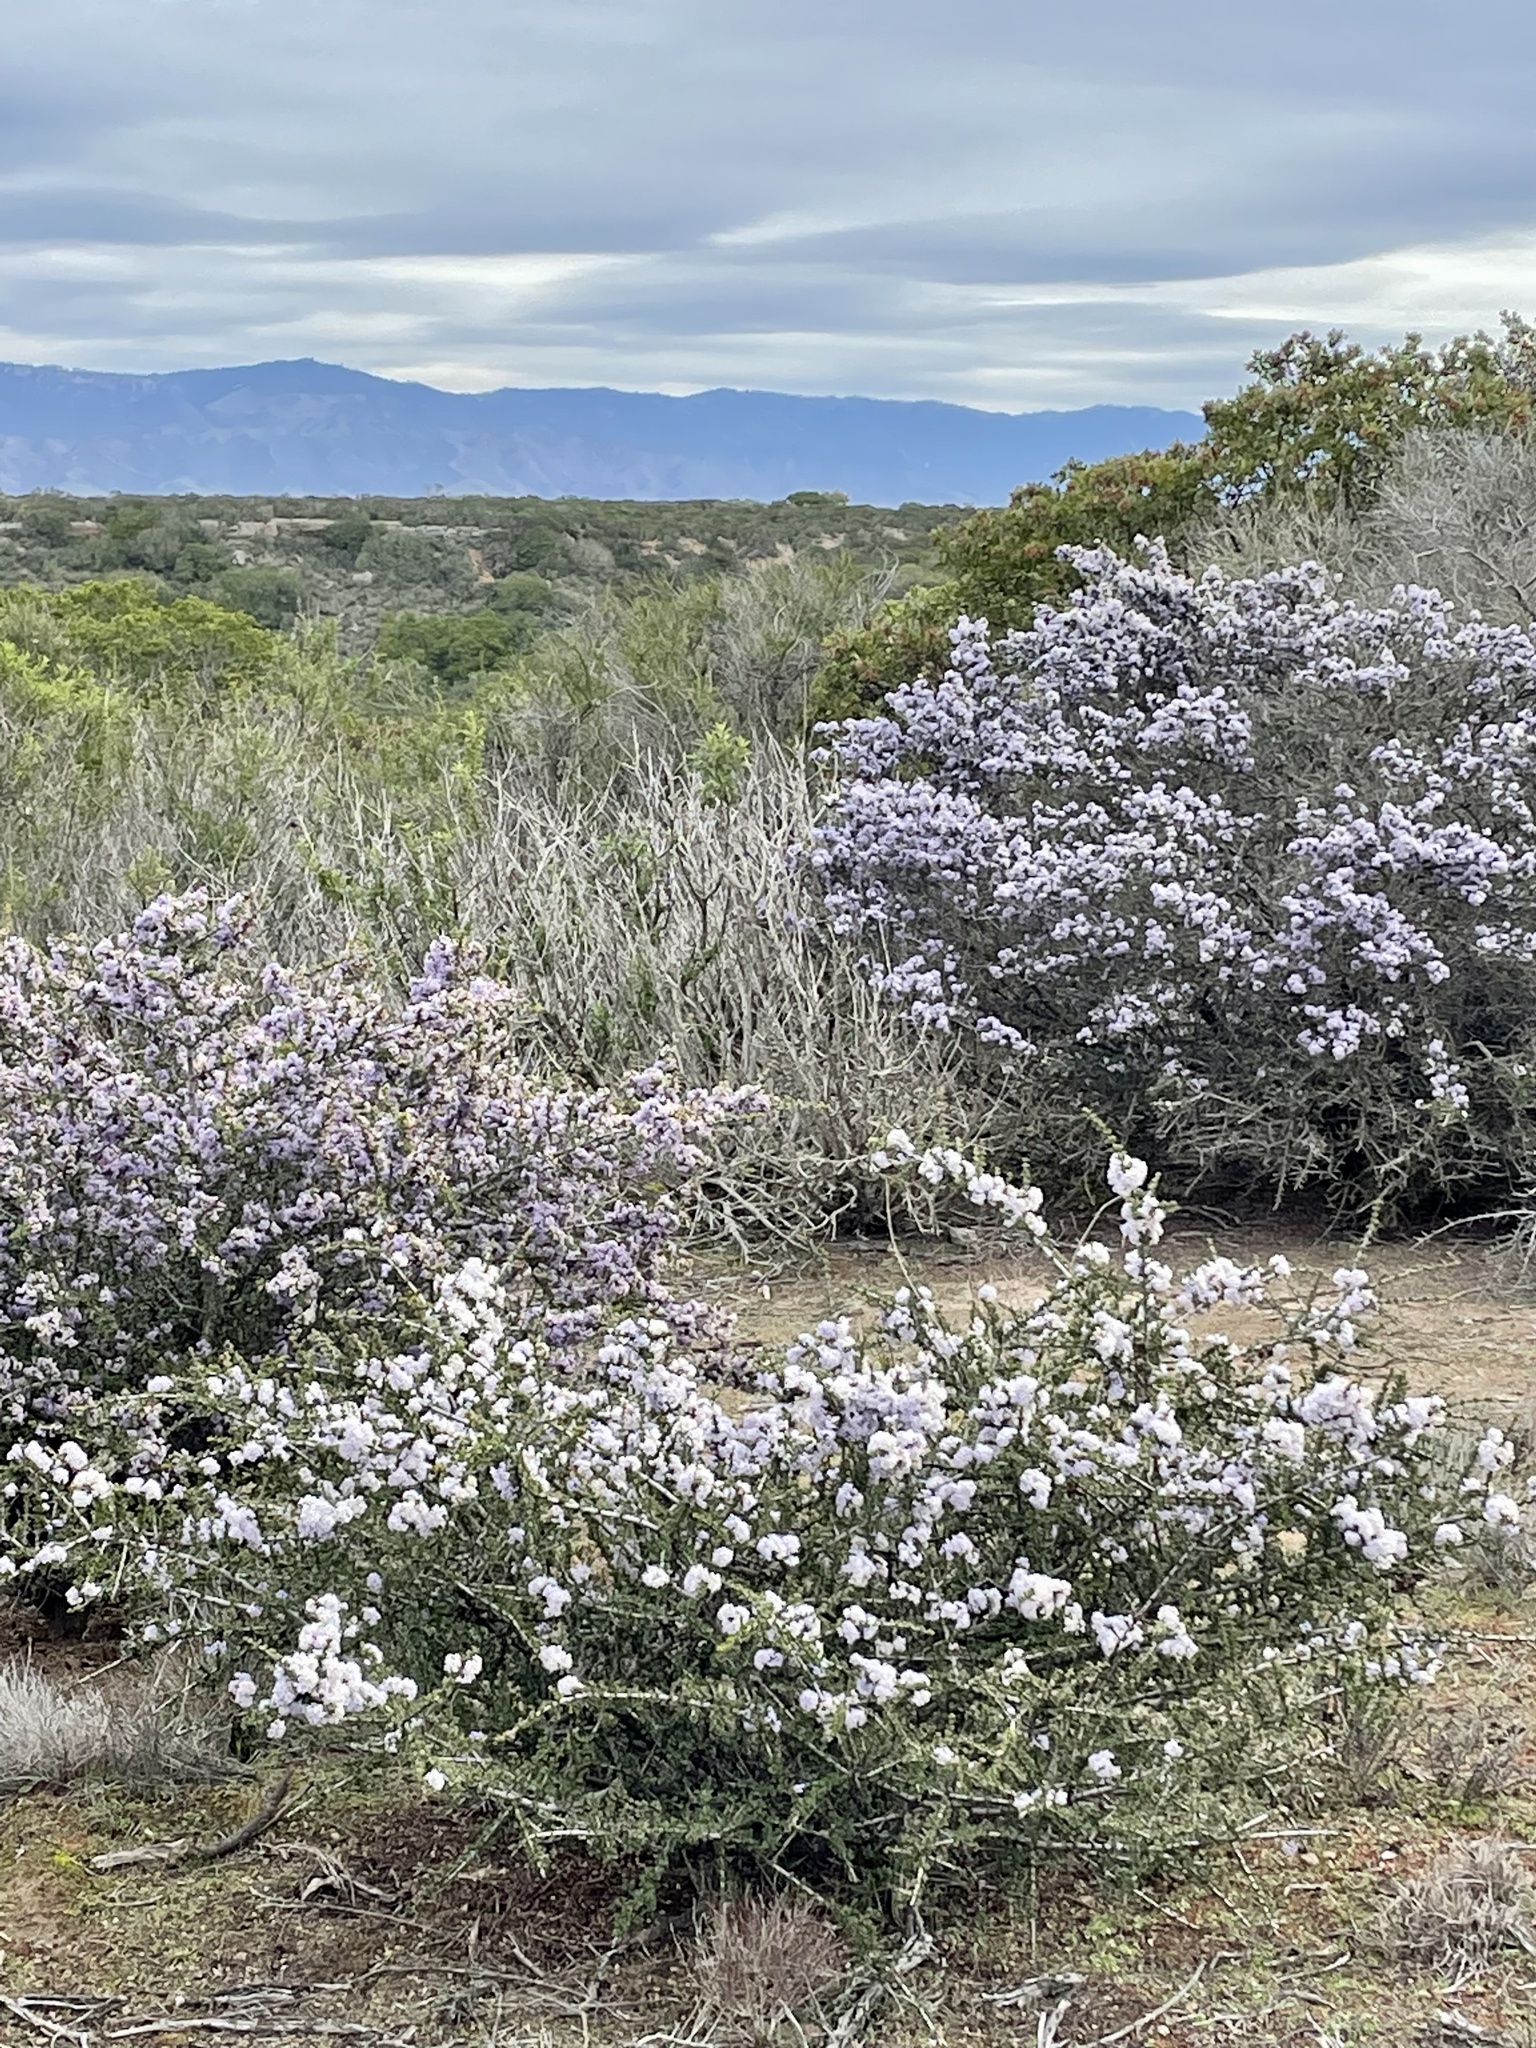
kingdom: Plantae
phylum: Tracheophyta
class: Magnoliopsida
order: Rosales
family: Rhamnaceae
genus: Ceanothus
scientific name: Ceanothus cuneatus
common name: Cuneate ceanothus
